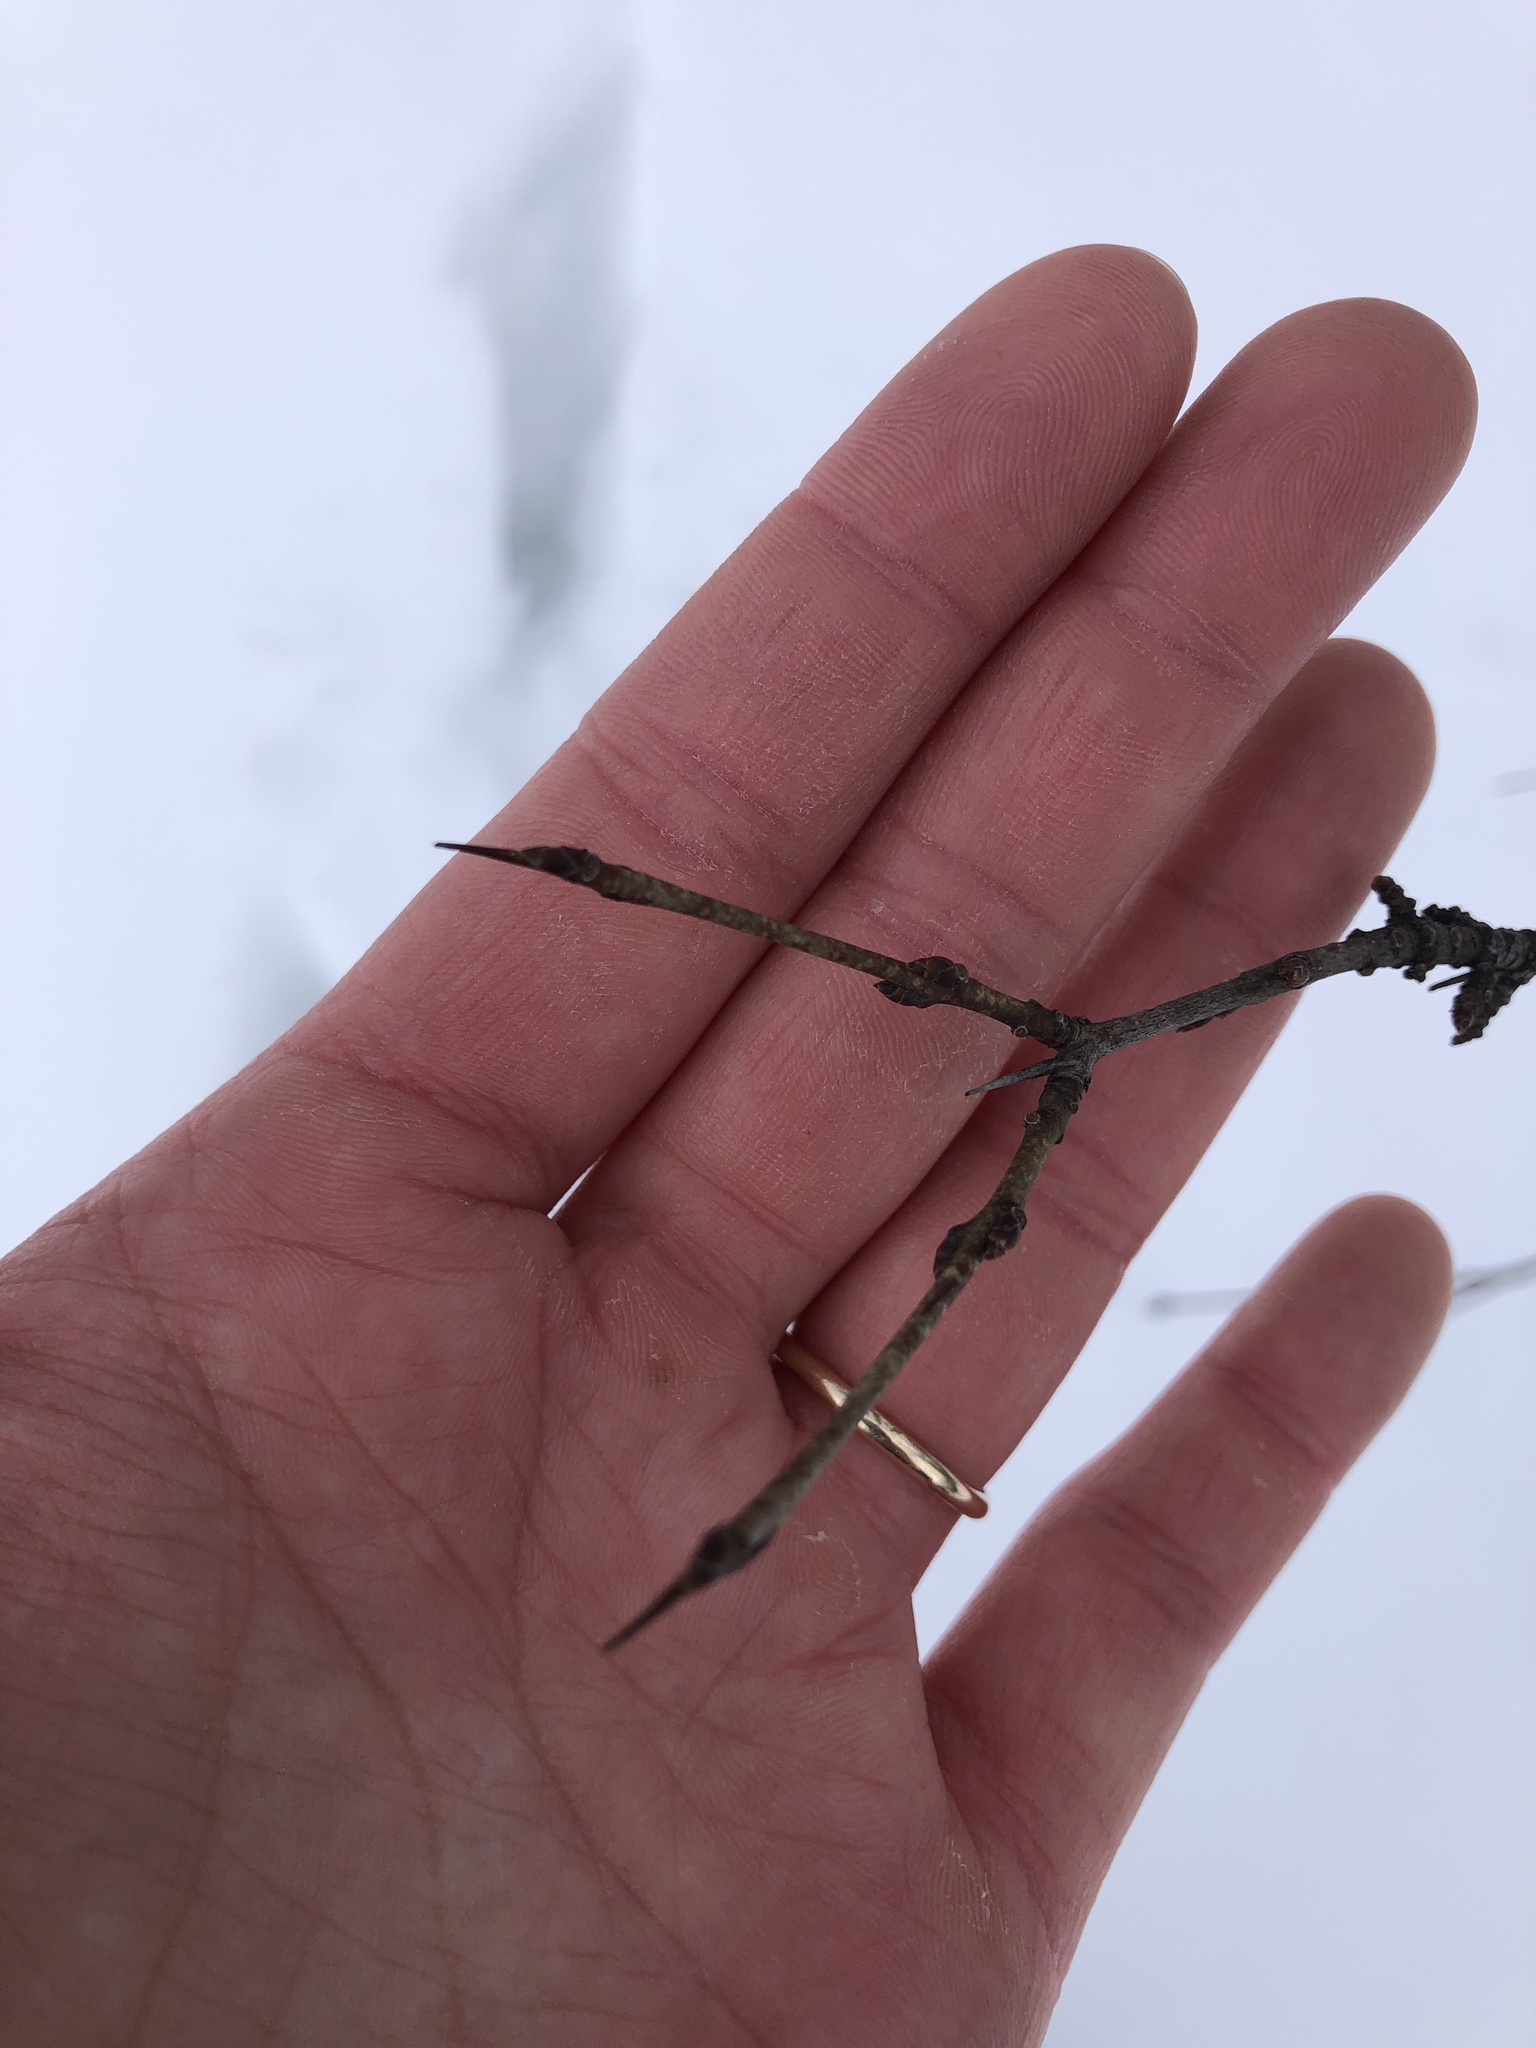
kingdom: Plantae
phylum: Tracheophyta
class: Magnoliopsida
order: Rosales
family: Rhamnaceae
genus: Rhamnus
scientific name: Rhamnus cathartica
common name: Common buckthorn
